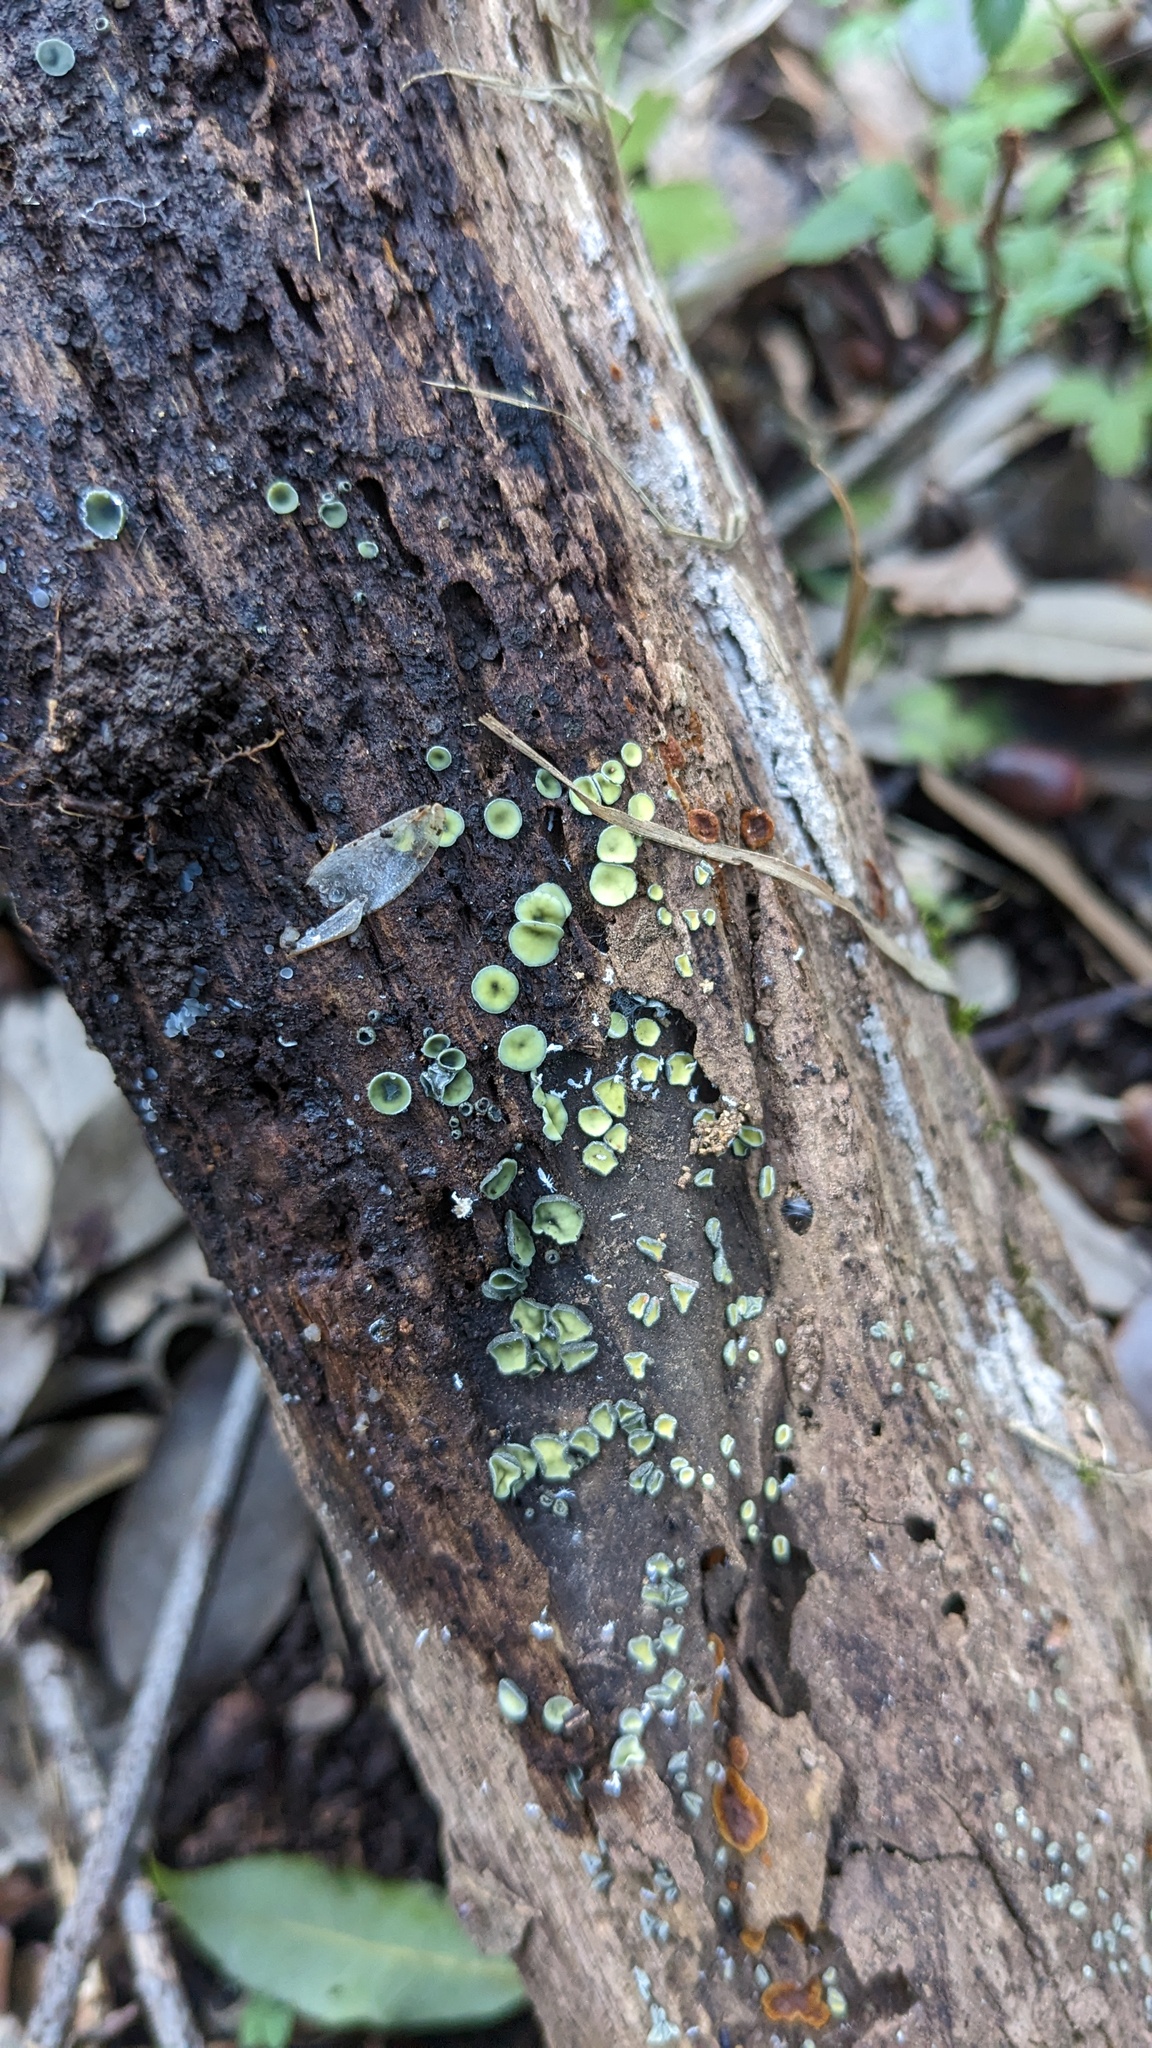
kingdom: Fungi
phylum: Ascomycota
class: Leotiomycetes
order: Helotiales
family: Chlorospleniaceae
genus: Chlorosplenium
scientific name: Chlorosplenium chlora
